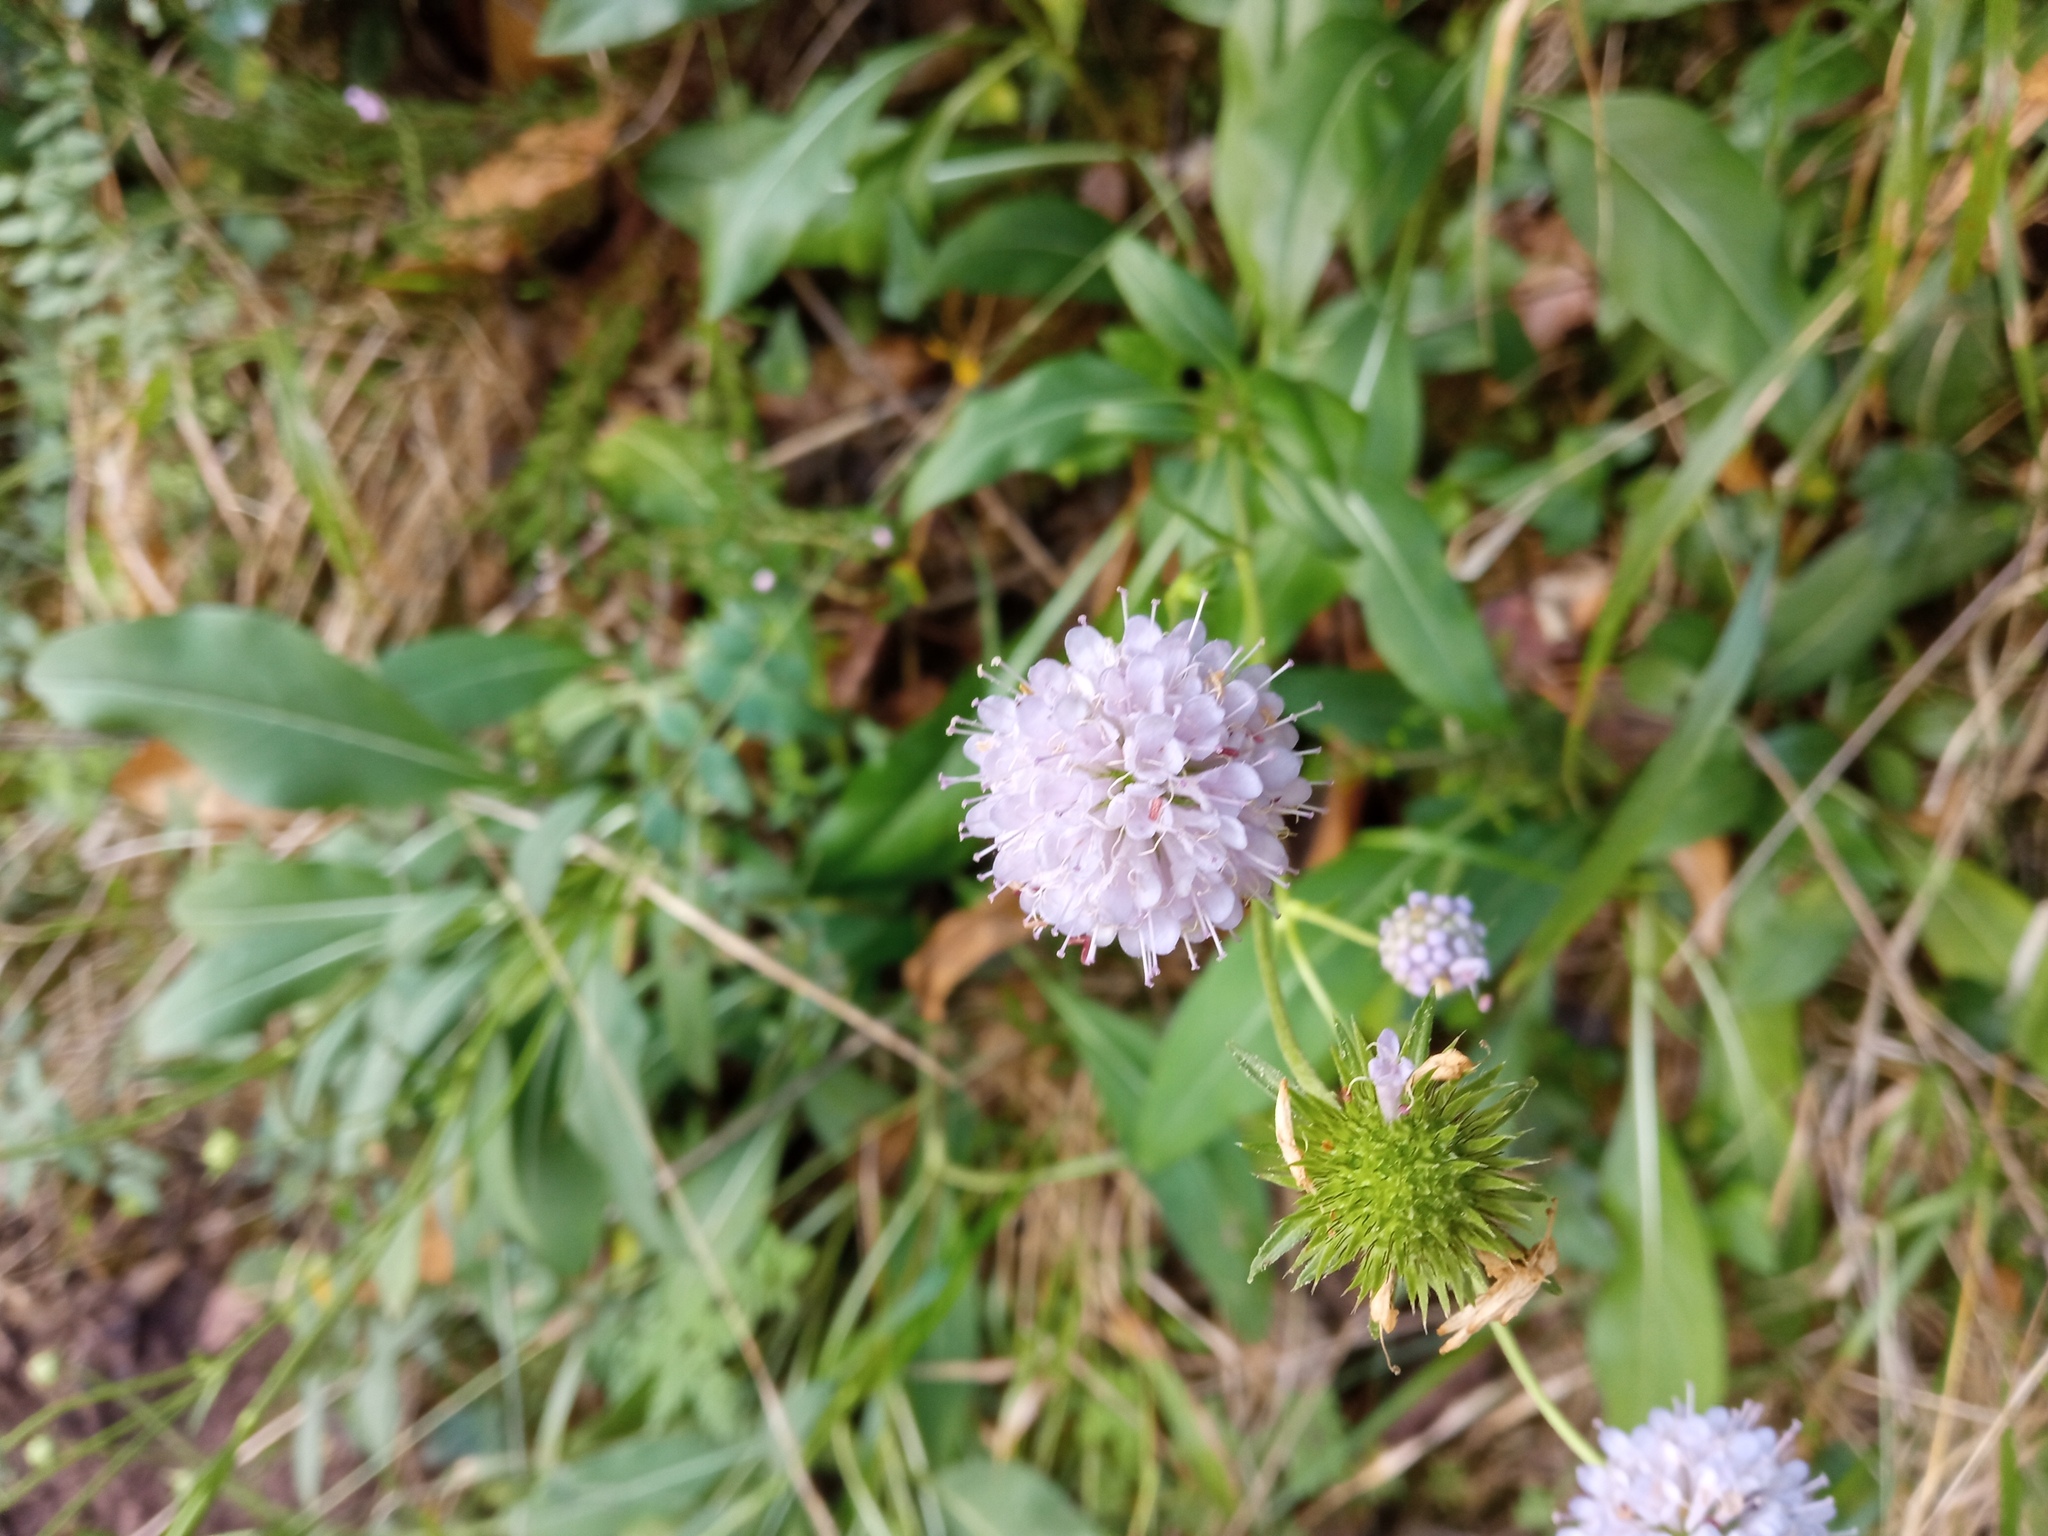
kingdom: Plantae
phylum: Tracheophyta
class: Magnoliopsida
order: Dipsacales
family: Caprifoliaceae
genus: Succisa
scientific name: Succisa pratensis
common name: Devil's-bit
